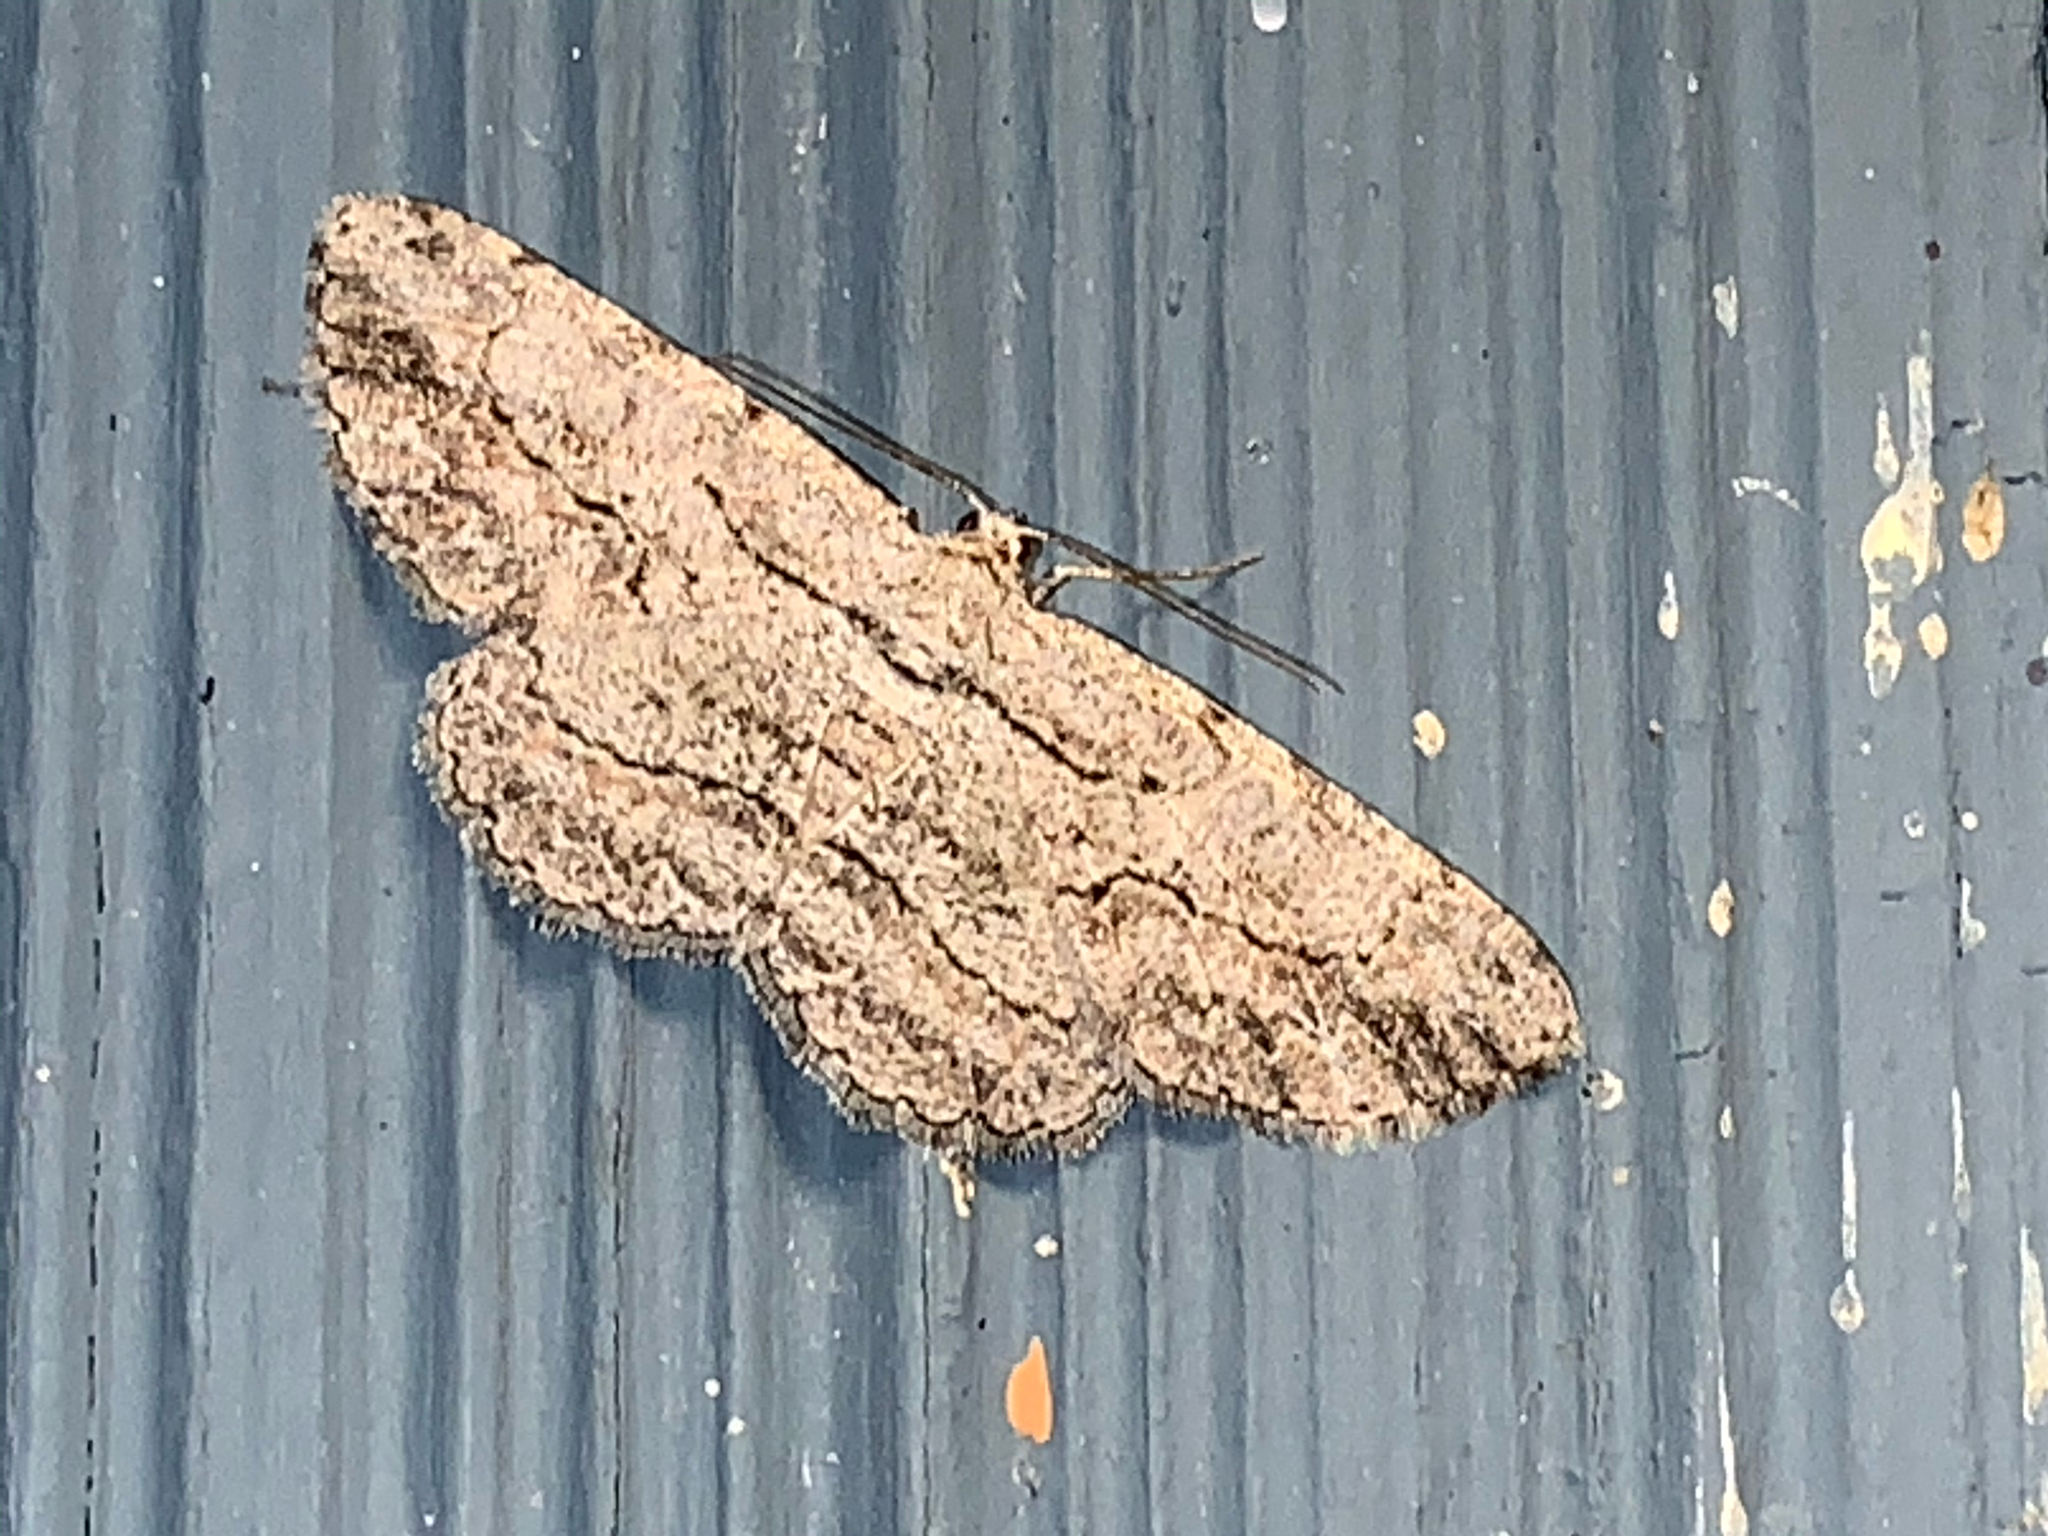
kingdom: Animalia
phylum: Arthropoda
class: Insecta
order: Lepidoptera
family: Geometridae
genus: Anavitrinella
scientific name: Anavitrinella pampinaria
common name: Common gray
